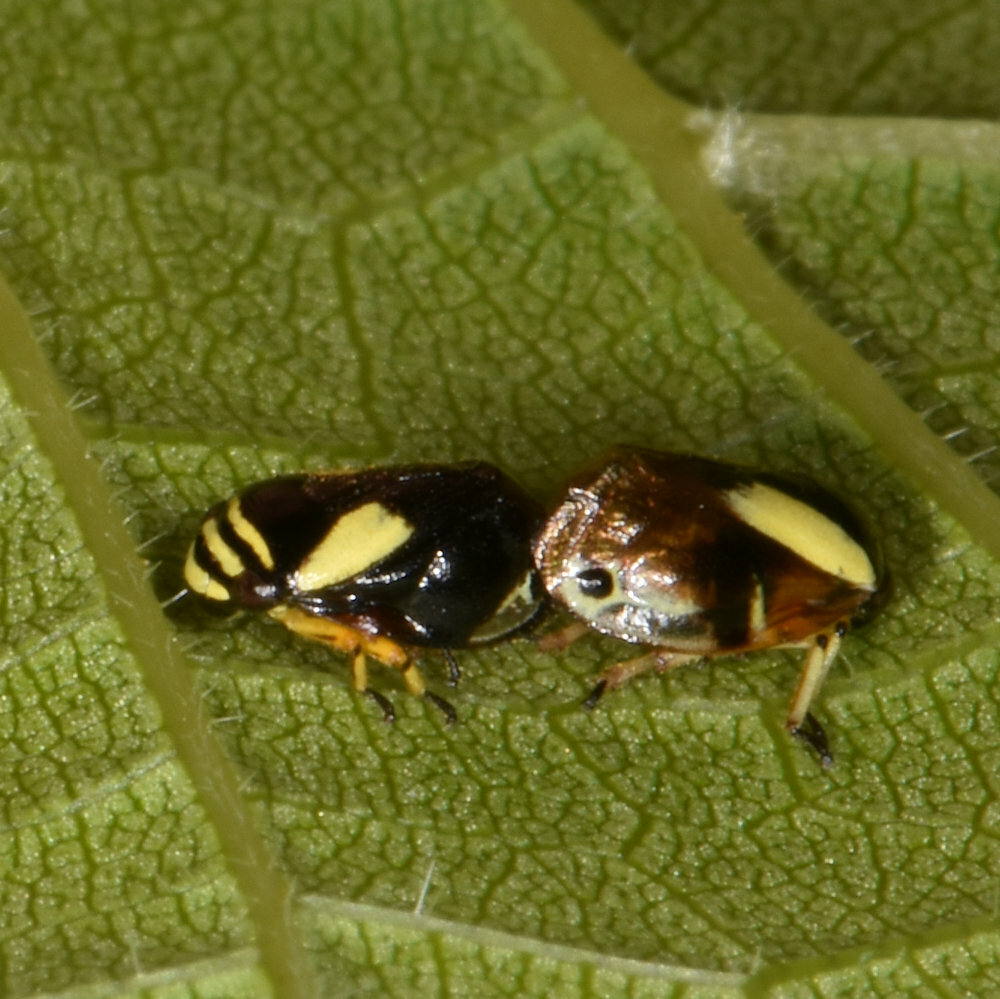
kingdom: Animalia
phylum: Arthropoda
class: Insecta
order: Hemiptera
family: Clastopteridae
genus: Clastoptera
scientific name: Clastoptera proteus
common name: Dogwood spittlebug
